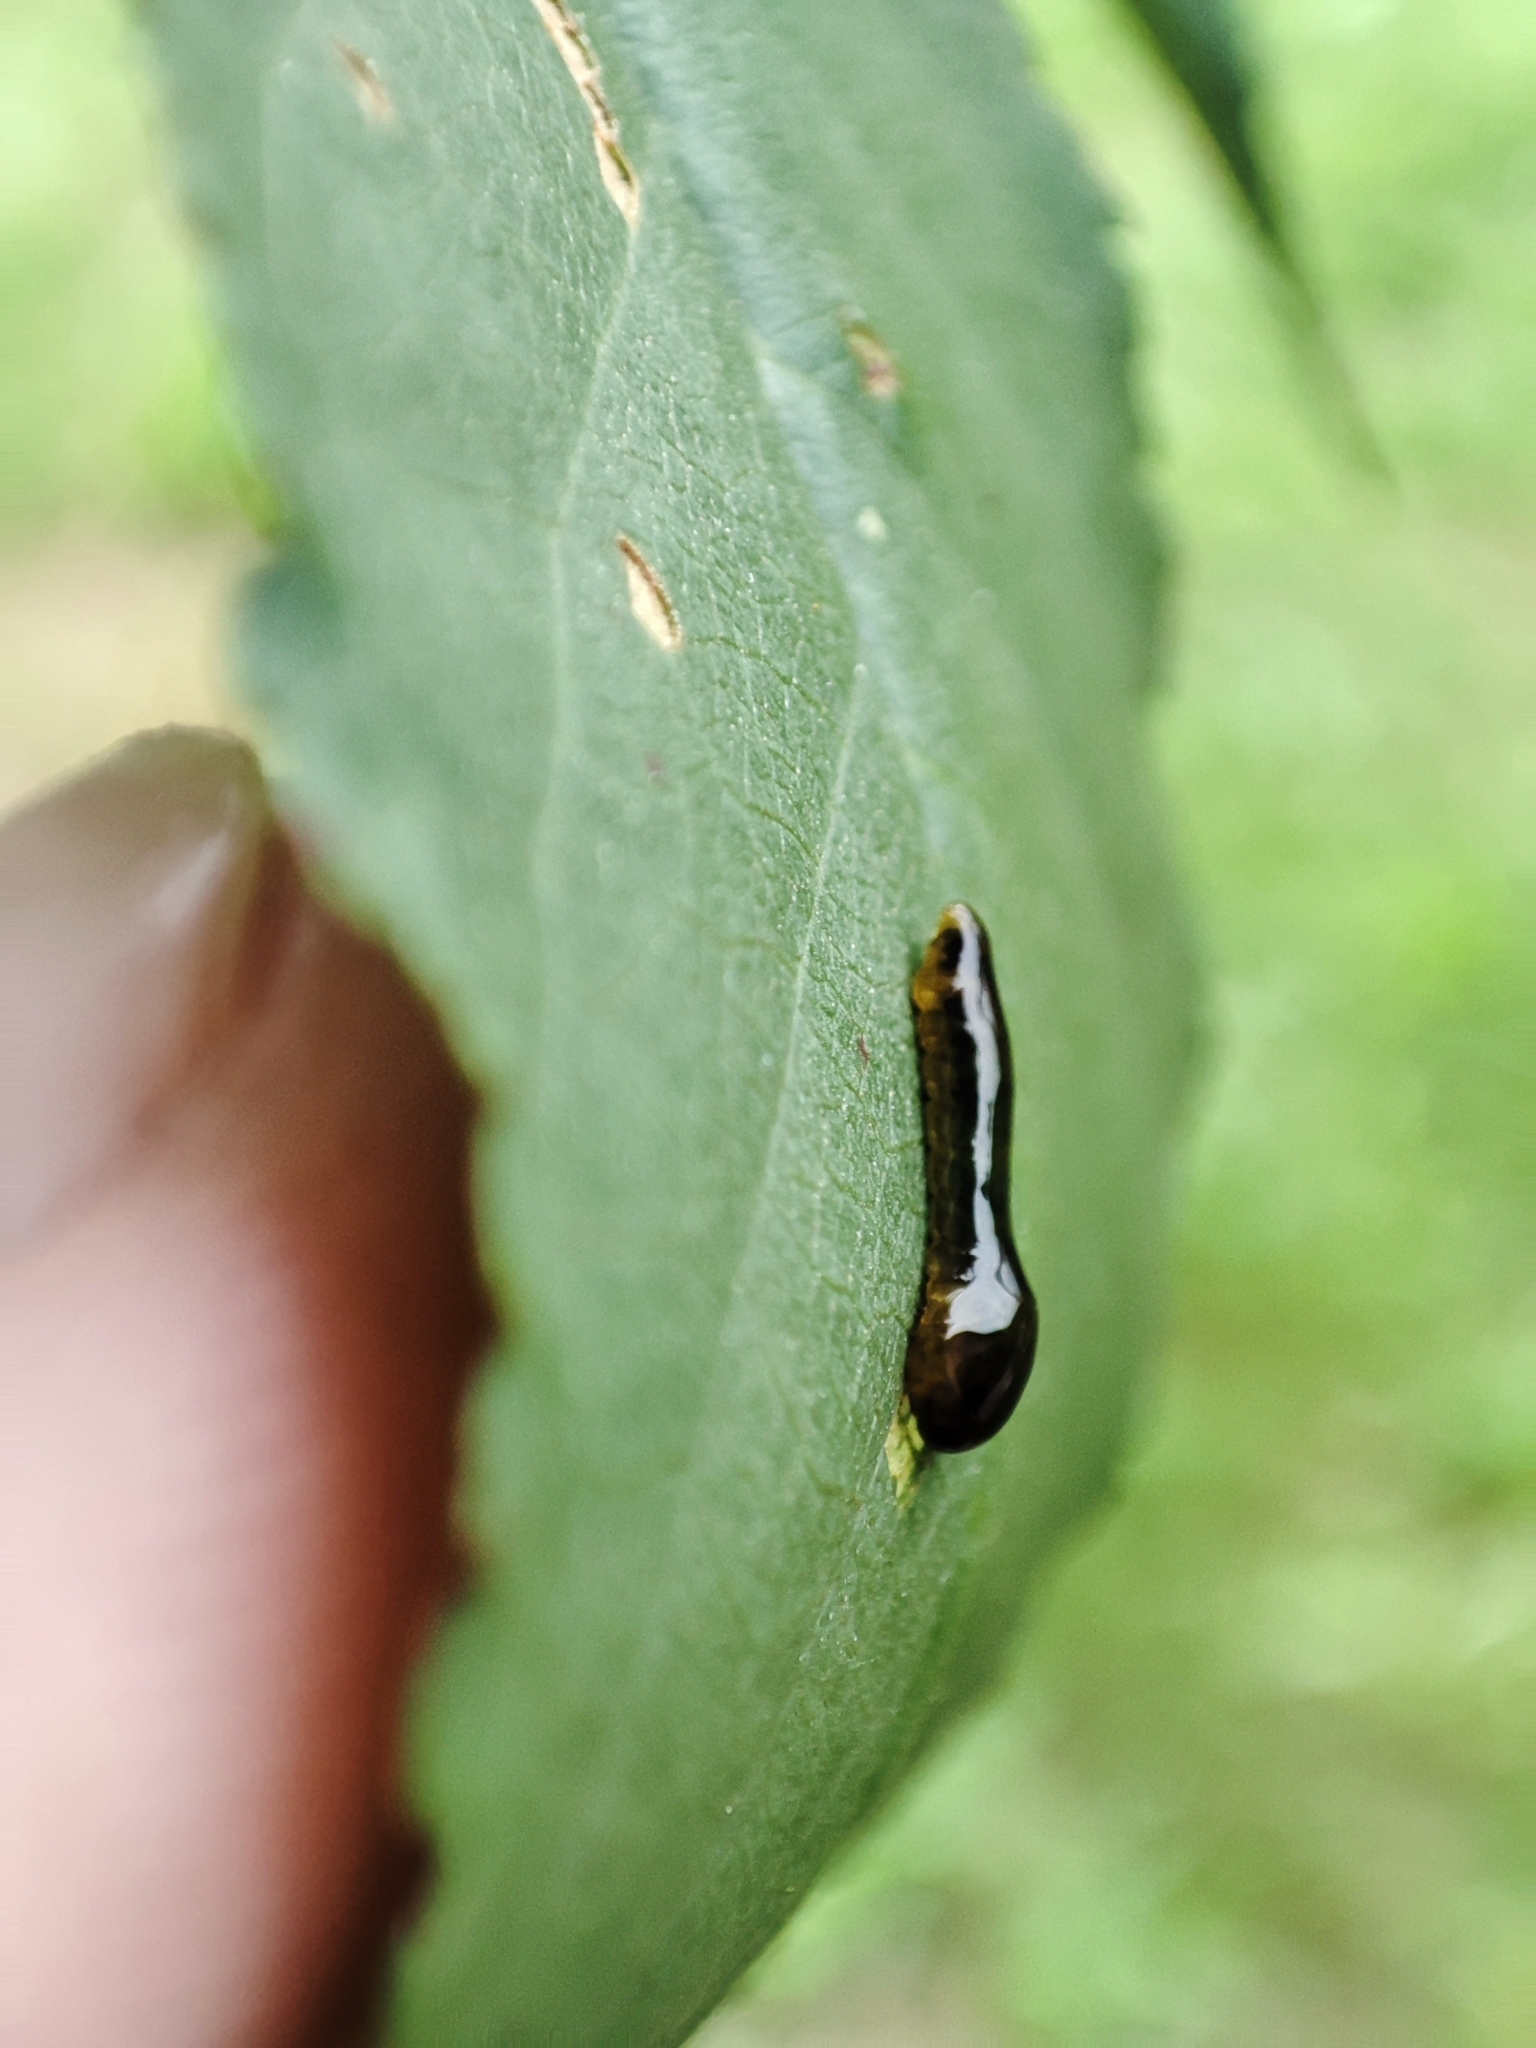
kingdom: Animalia
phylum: Arthropoda
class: Insecta
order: Hymenoptera
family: Tenthredinidae
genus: Caliroa
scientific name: Caliroa cerasi
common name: Pear sawfly
